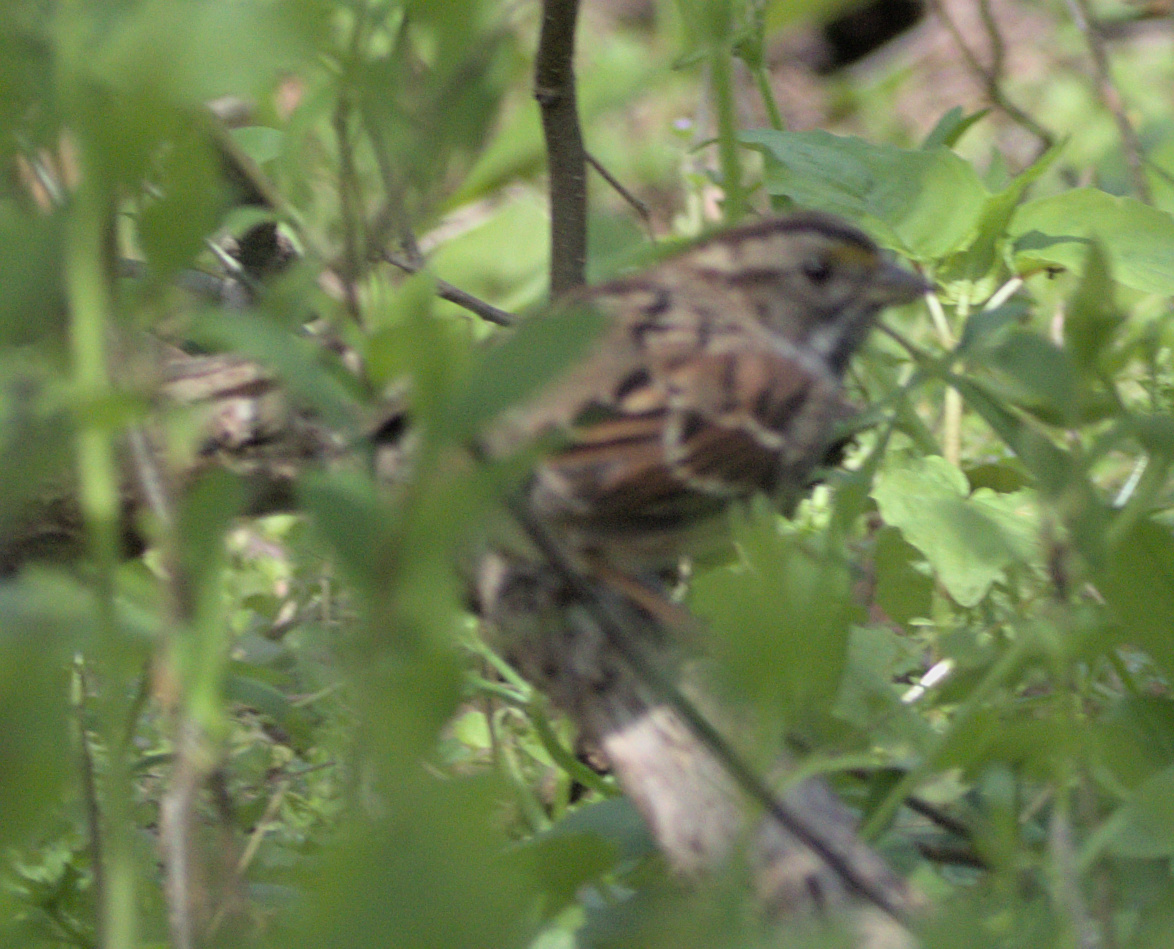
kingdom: Animalia
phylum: Chordata
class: Aves
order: Passeriformes
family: Passerellidae
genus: Zonotrichia
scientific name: Zonotrichia albicollis
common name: White-throated sparrow
